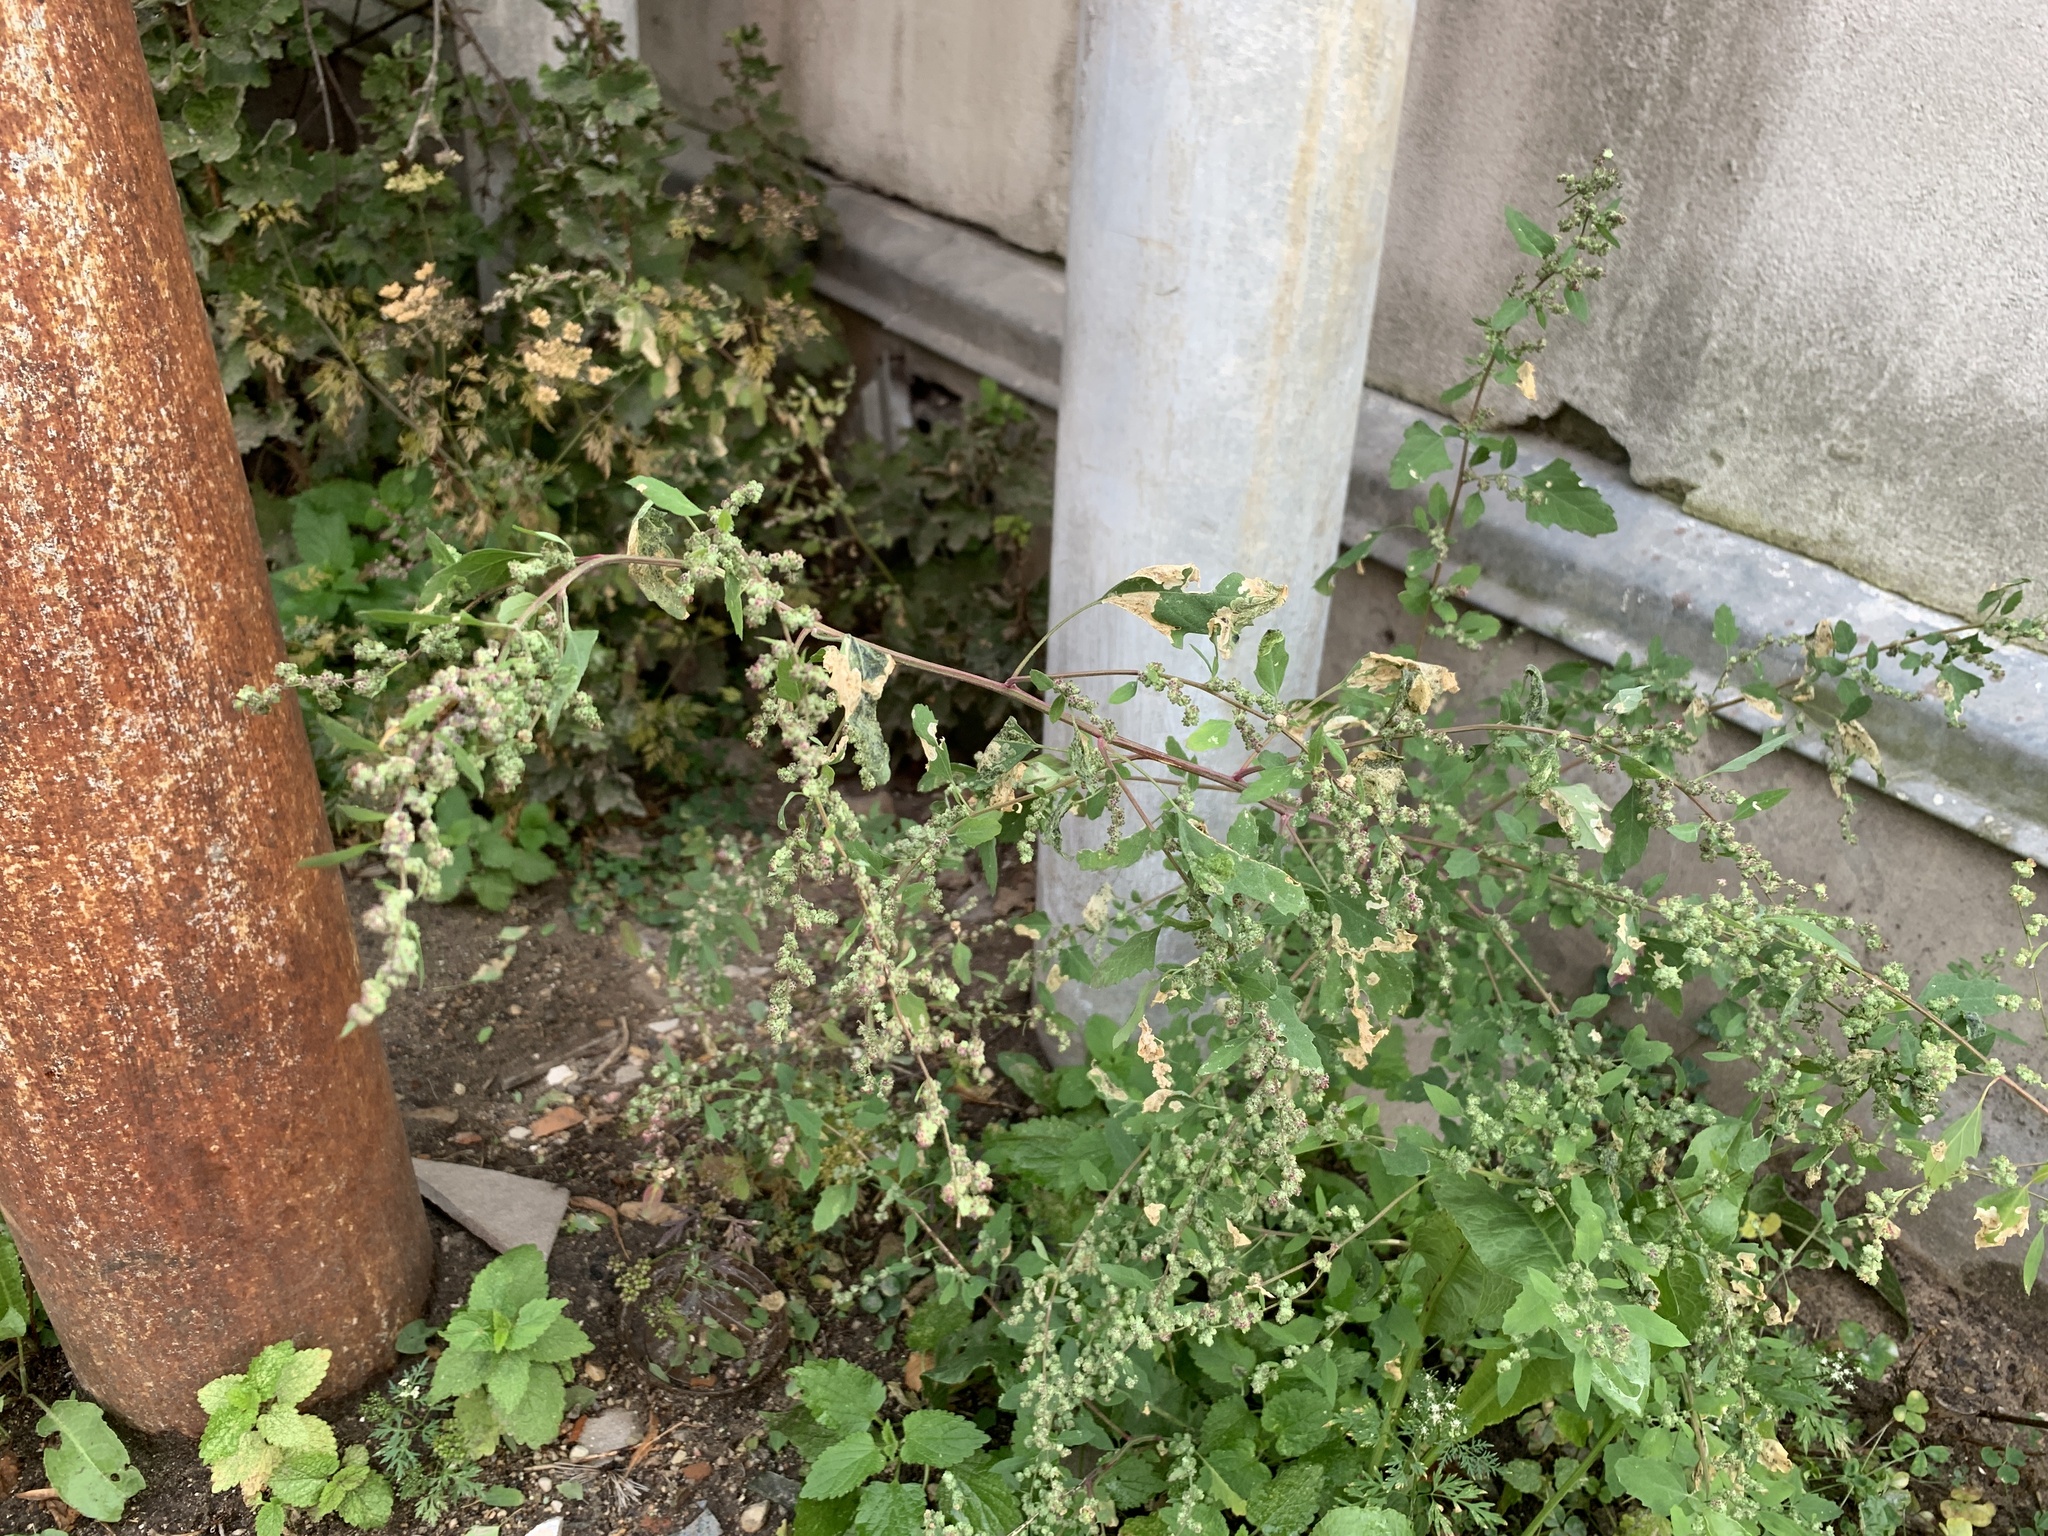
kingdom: Plantae
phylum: Tracheophyta
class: Magnoliopsida
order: Caryophyllales
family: Amaranthaceae
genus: Chenopodium
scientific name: Chenopodium album
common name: Fat-hen
